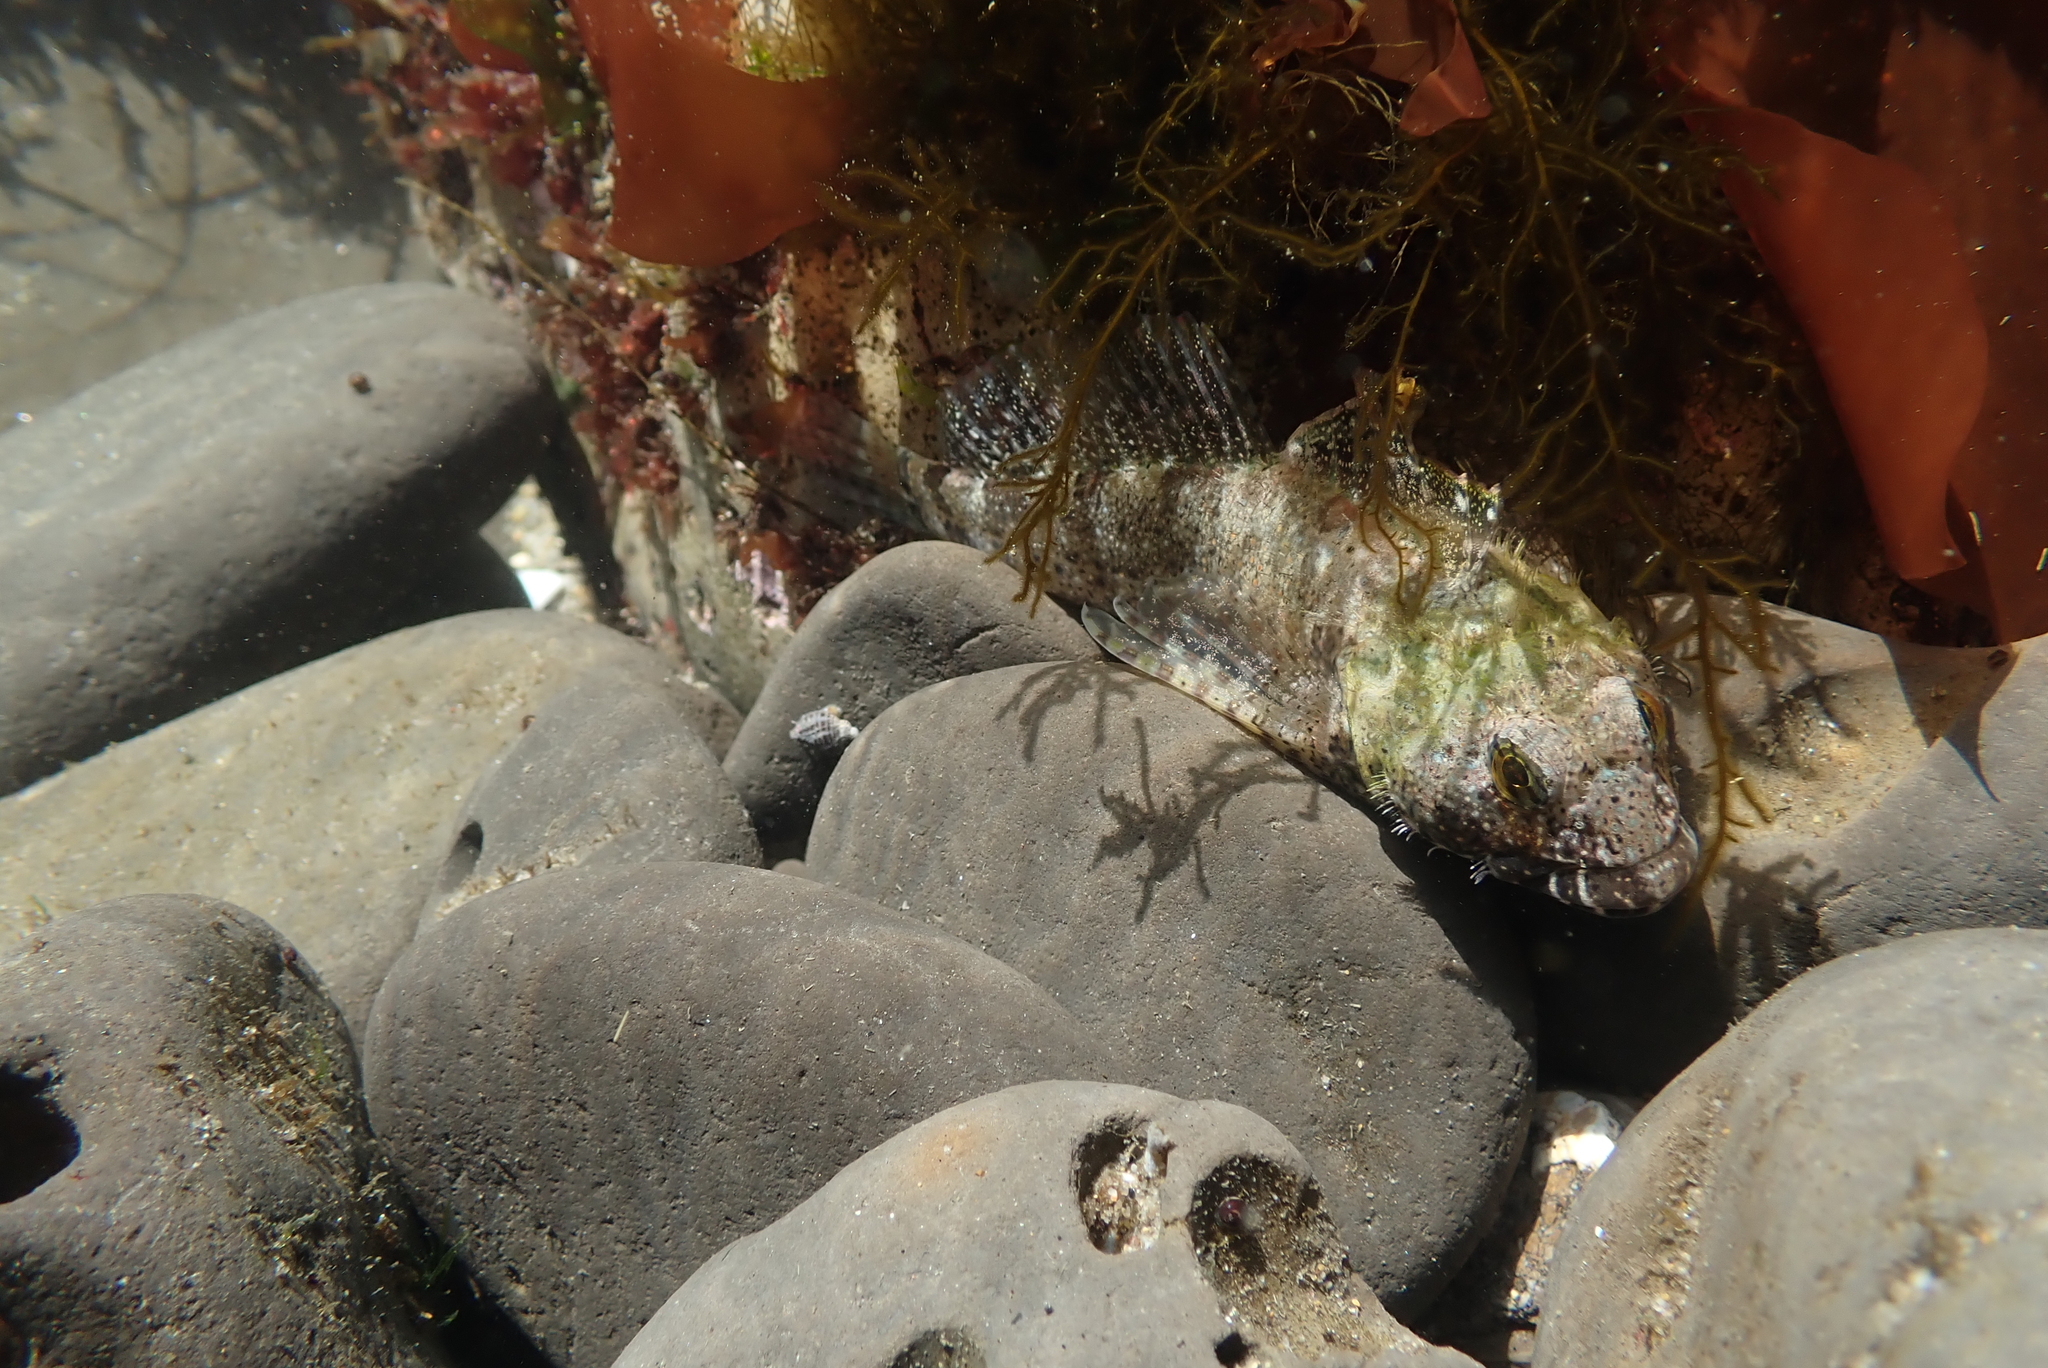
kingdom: Animalia
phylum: Chordata
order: Scorpaeniformes
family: Cottidae
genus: Clinocottus
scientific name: Clinocottus analis
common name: Woolly sculpin
